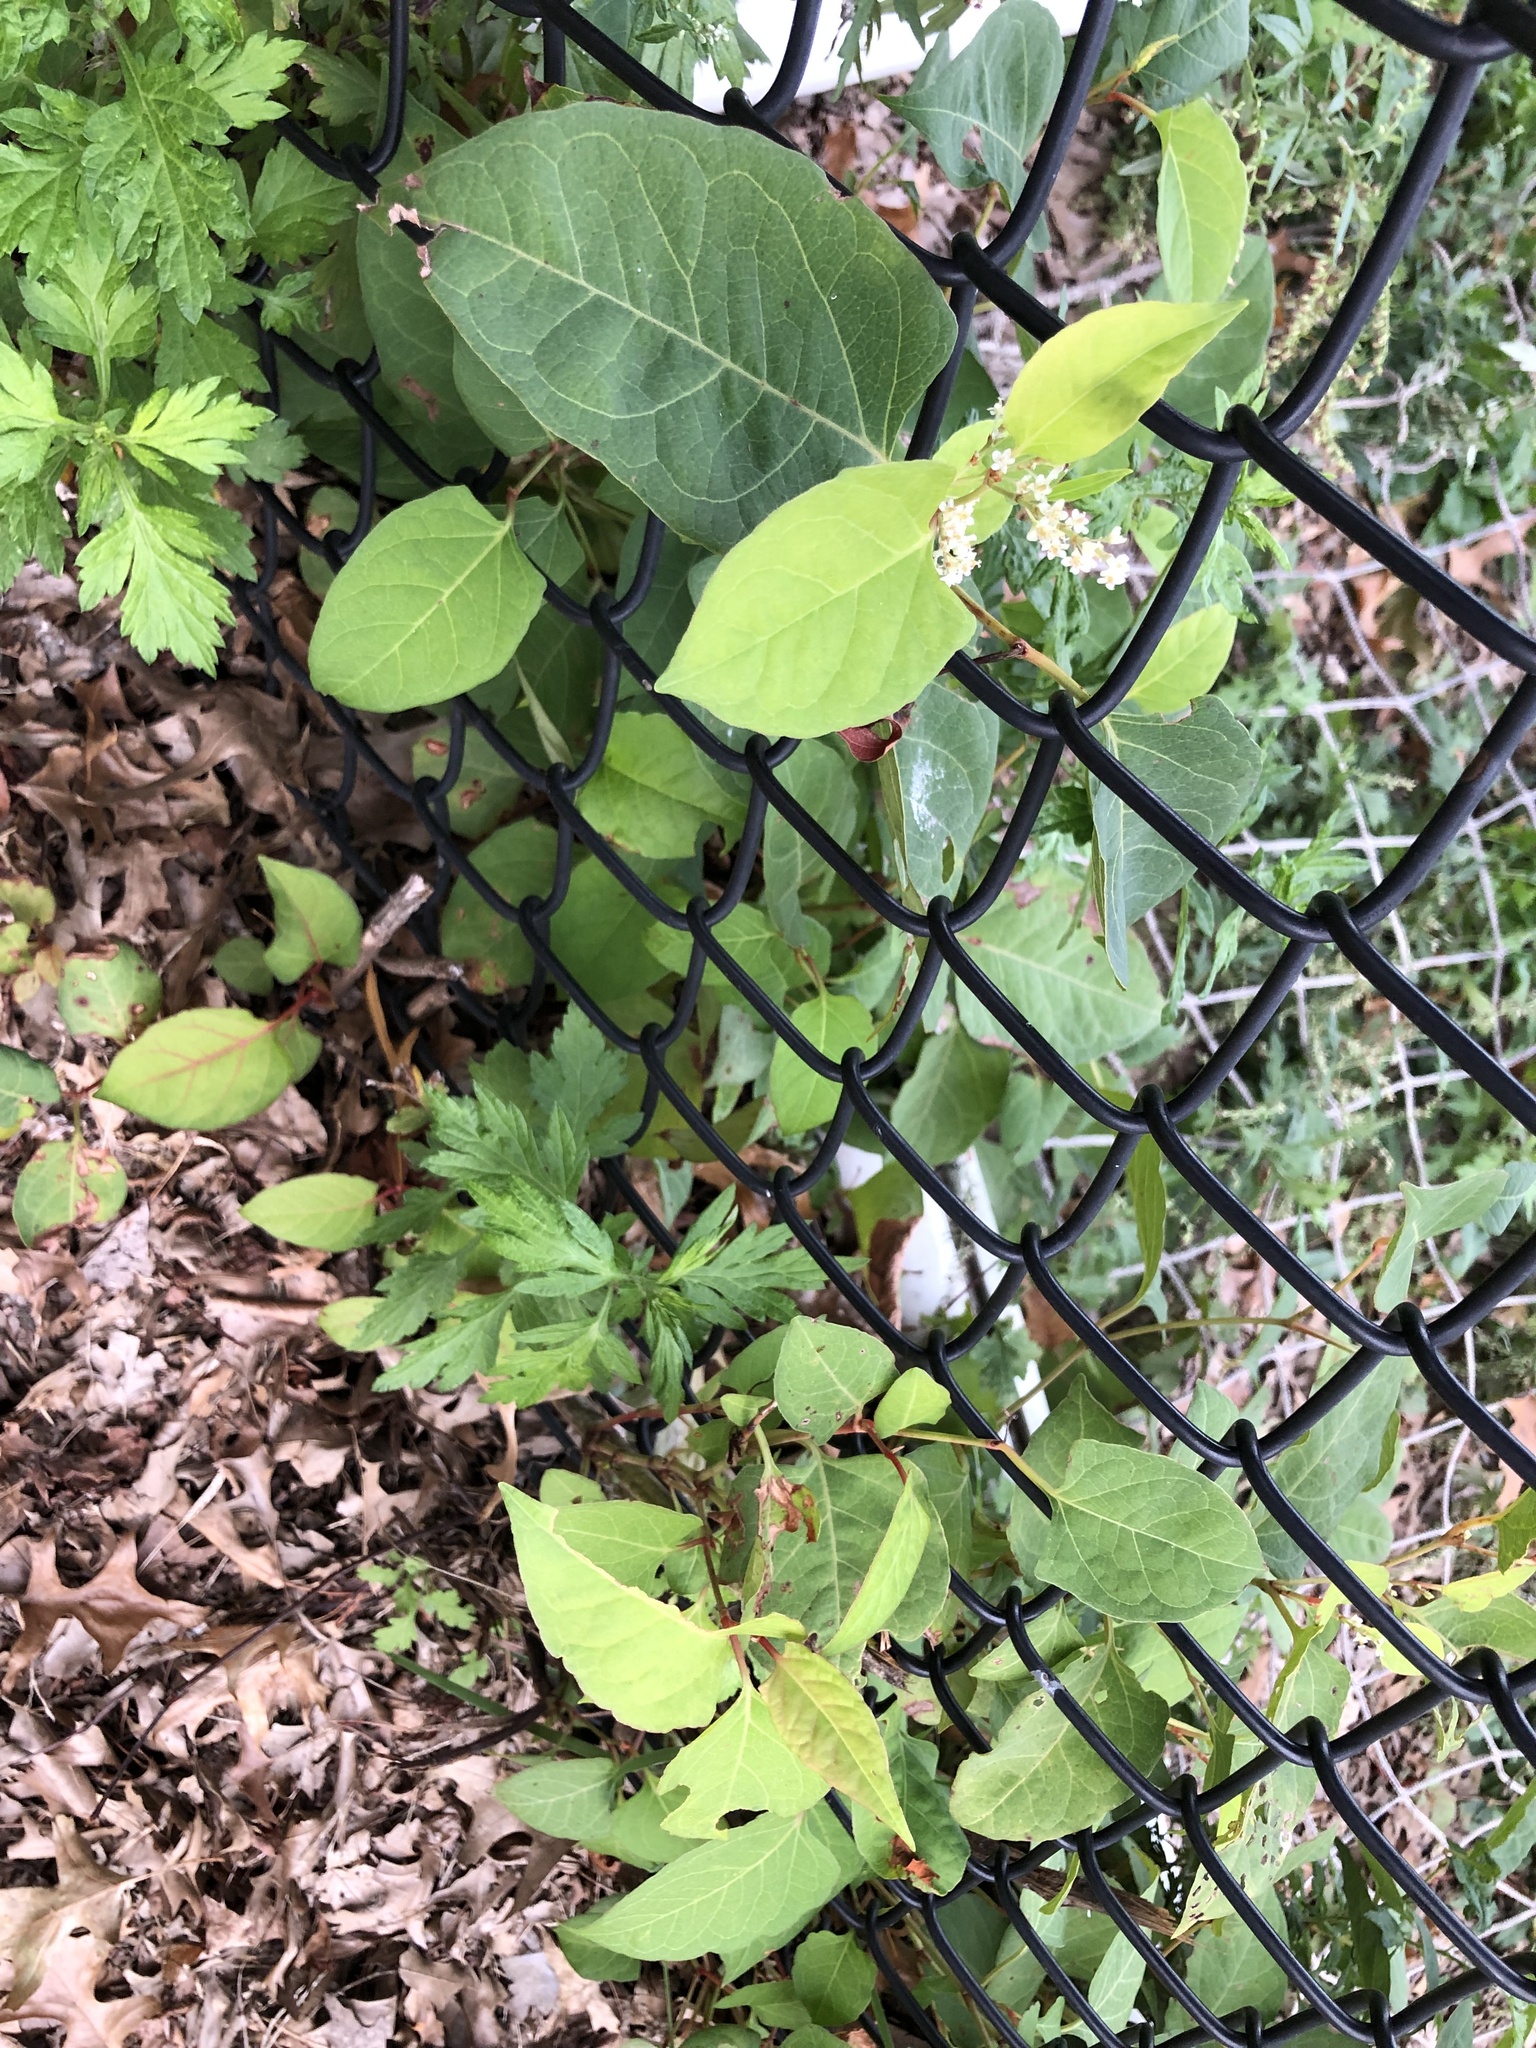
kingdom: Plantae
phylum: Tracheophyta
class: Magnoliopsida
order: Caryophyllales
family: Polygonaceae
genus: Reynoutria
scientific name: Reynoutria japonica
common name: Japanese knotweed
